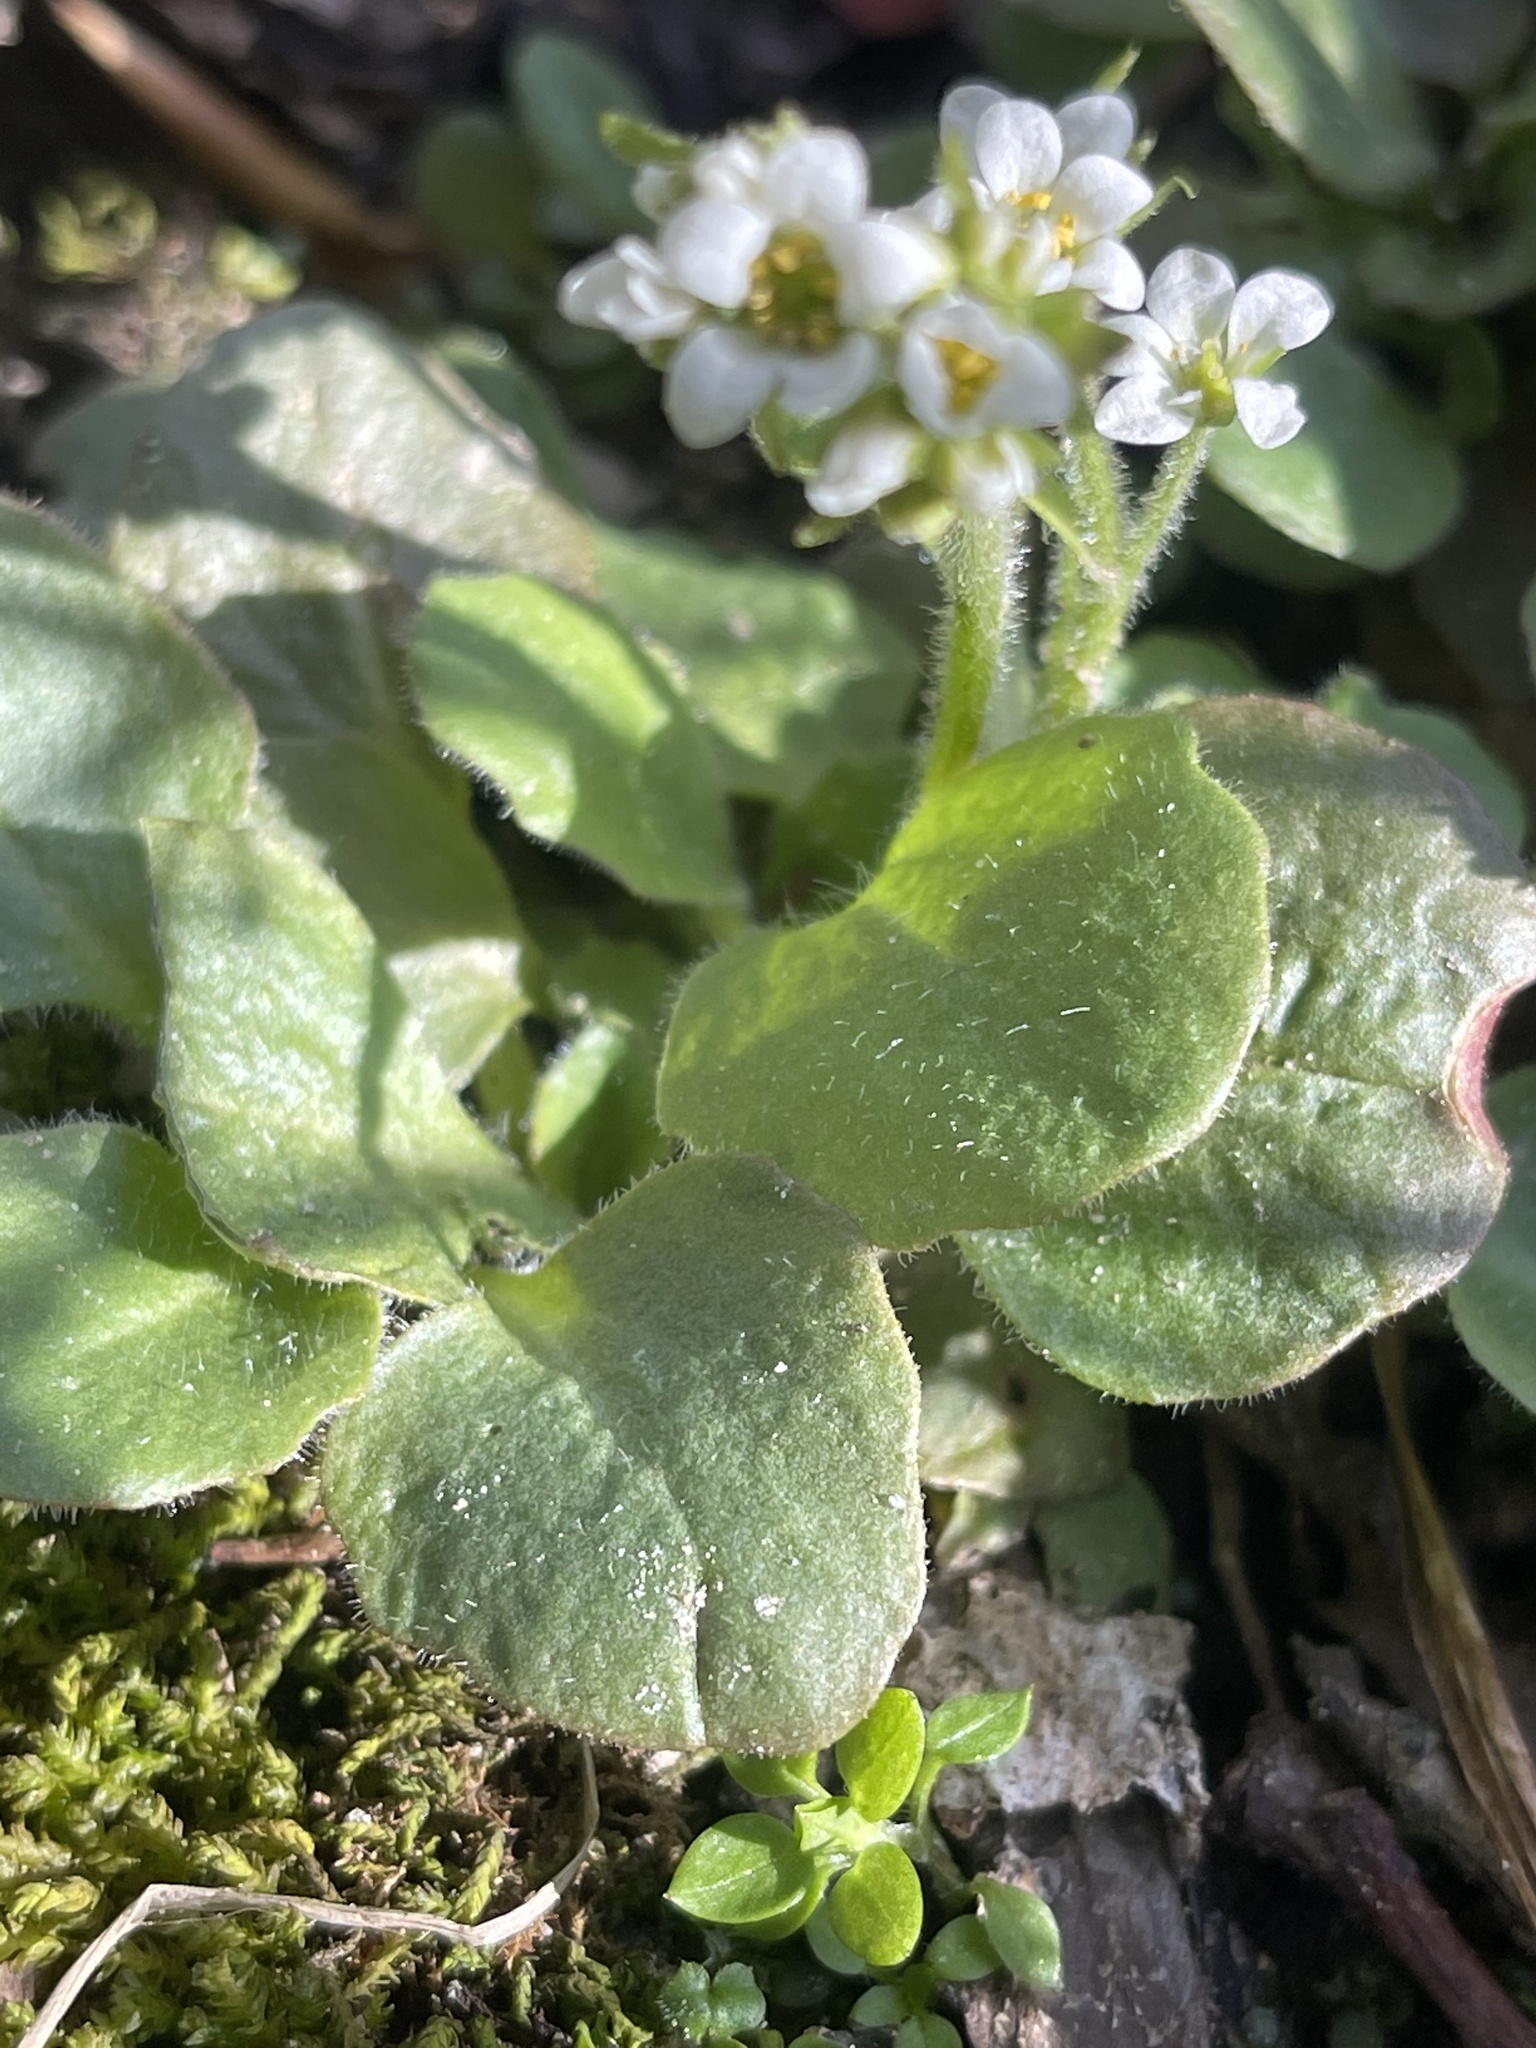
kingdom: Plantae
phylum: Tracheophyta
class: Magnoliopsida
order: Saxifragales
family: Saxifragaceae
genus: Micranthes
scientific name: Micranthes virginiensis
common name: Early saxifrage
